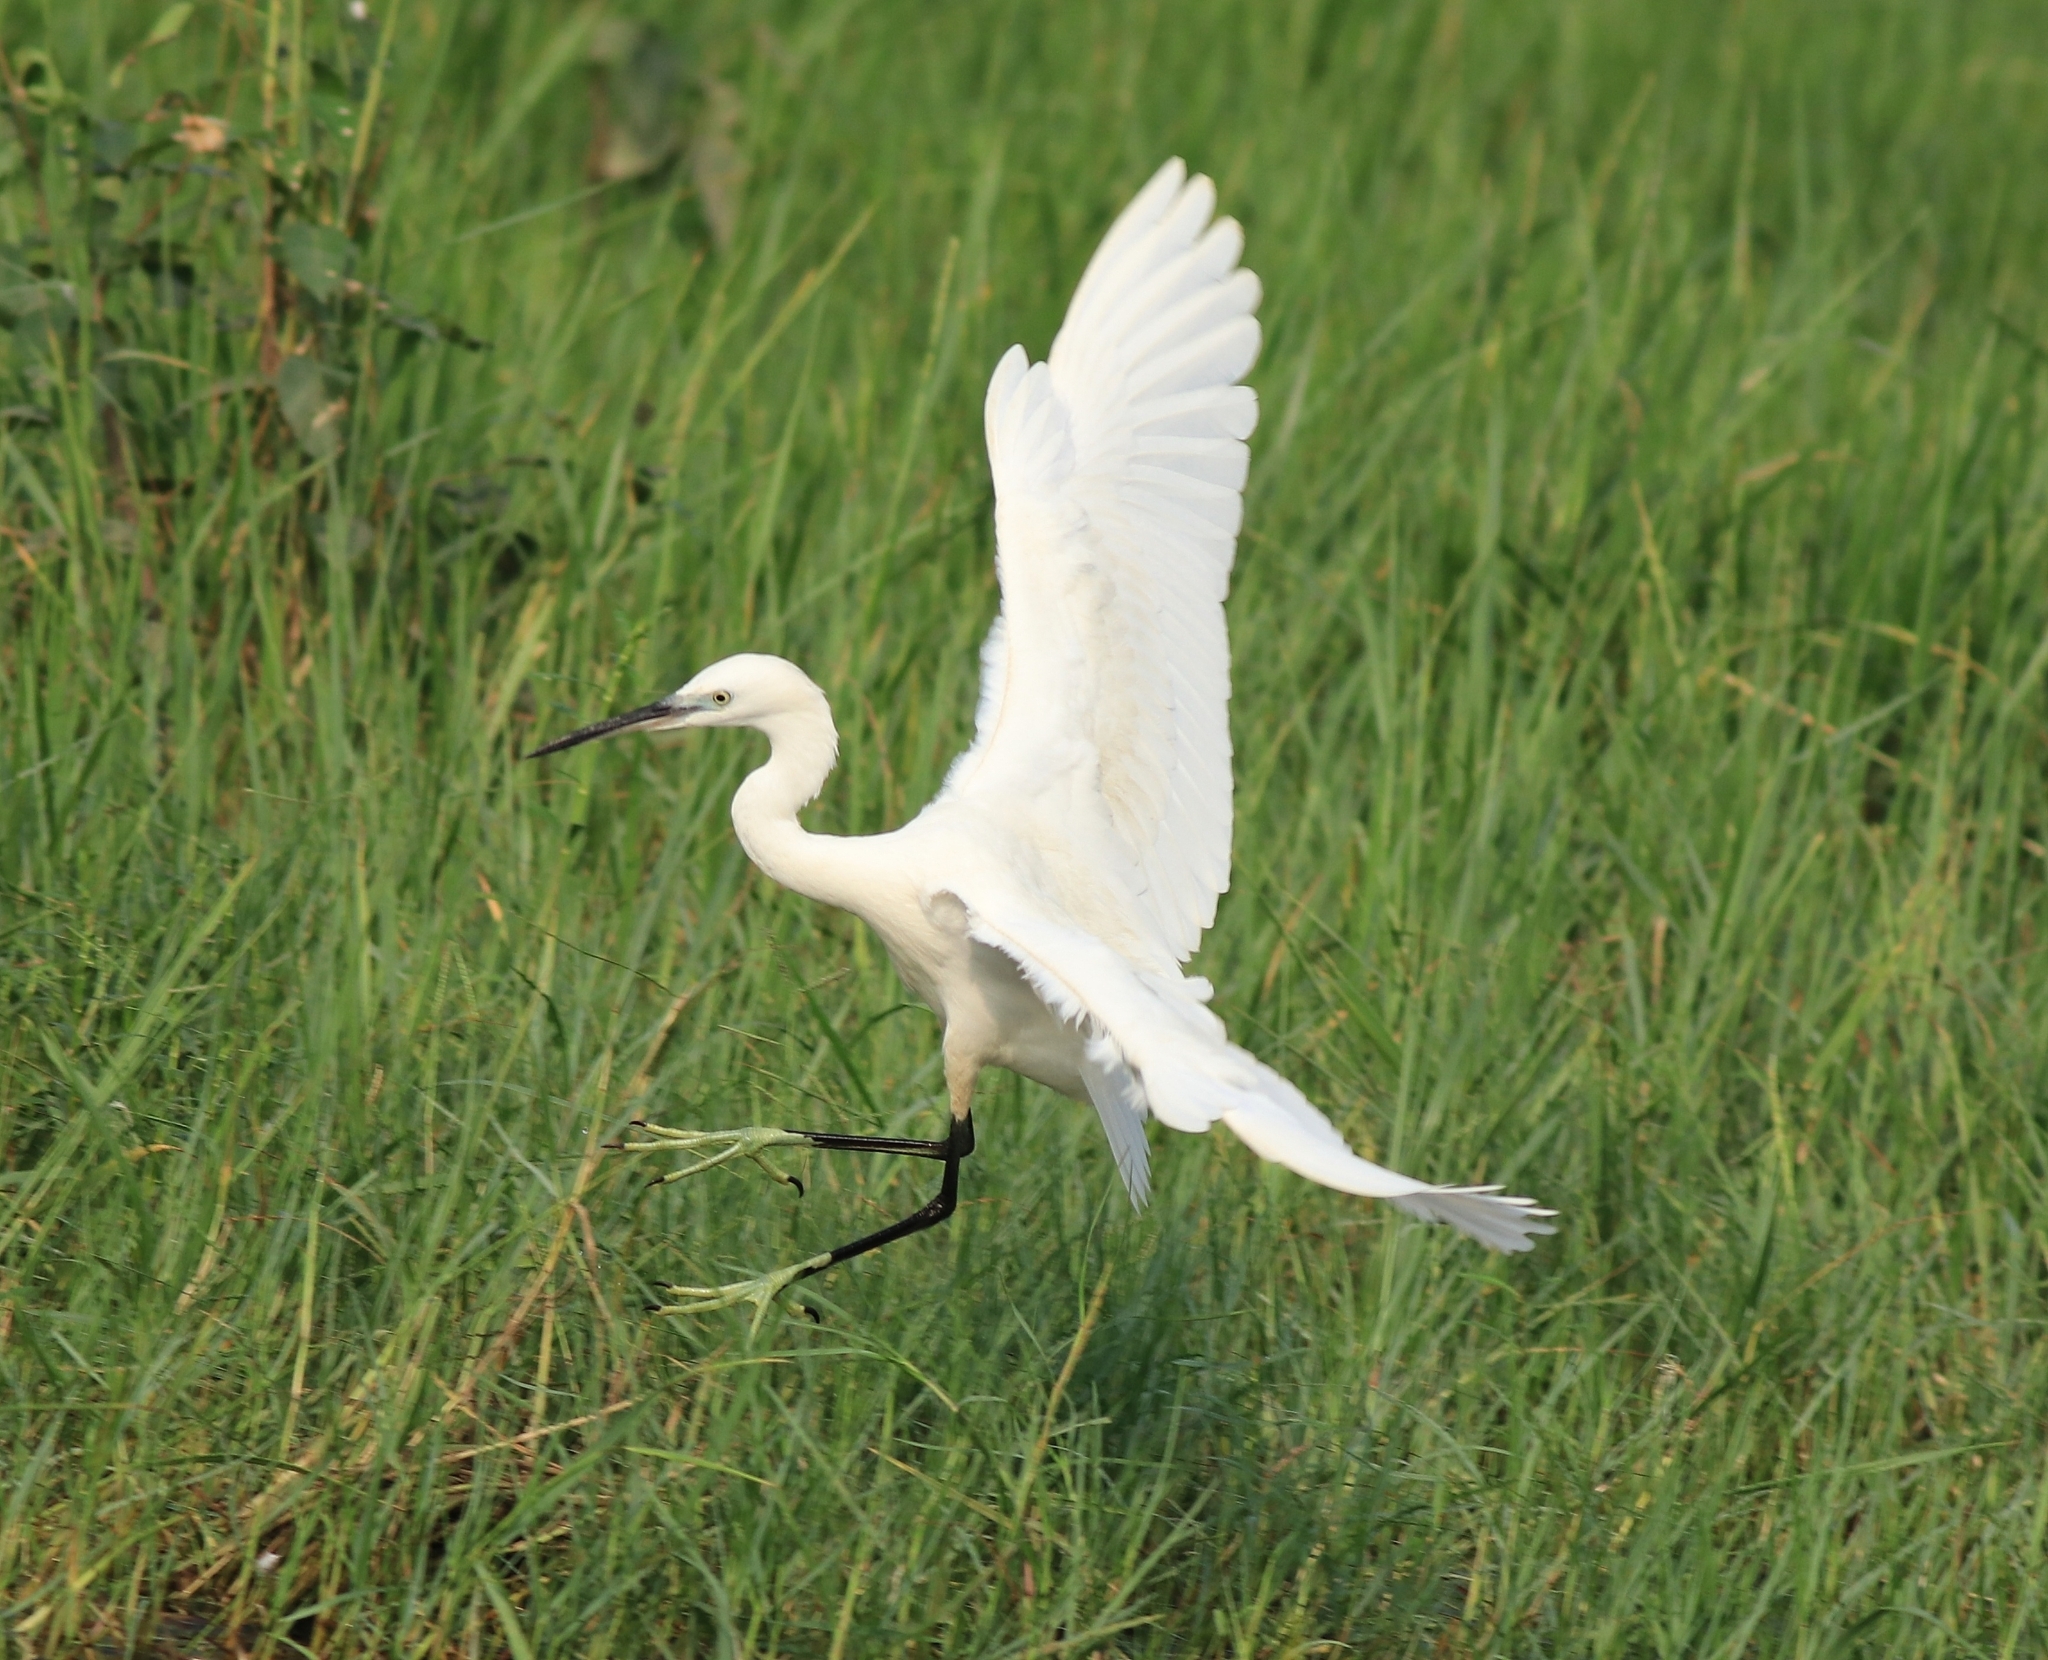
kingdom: Animalia
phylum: Chordata
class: Aves
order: Pelecaniformes
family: Ardeidae
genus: Egretta
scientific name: Egretta garzetta
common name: Little egret
